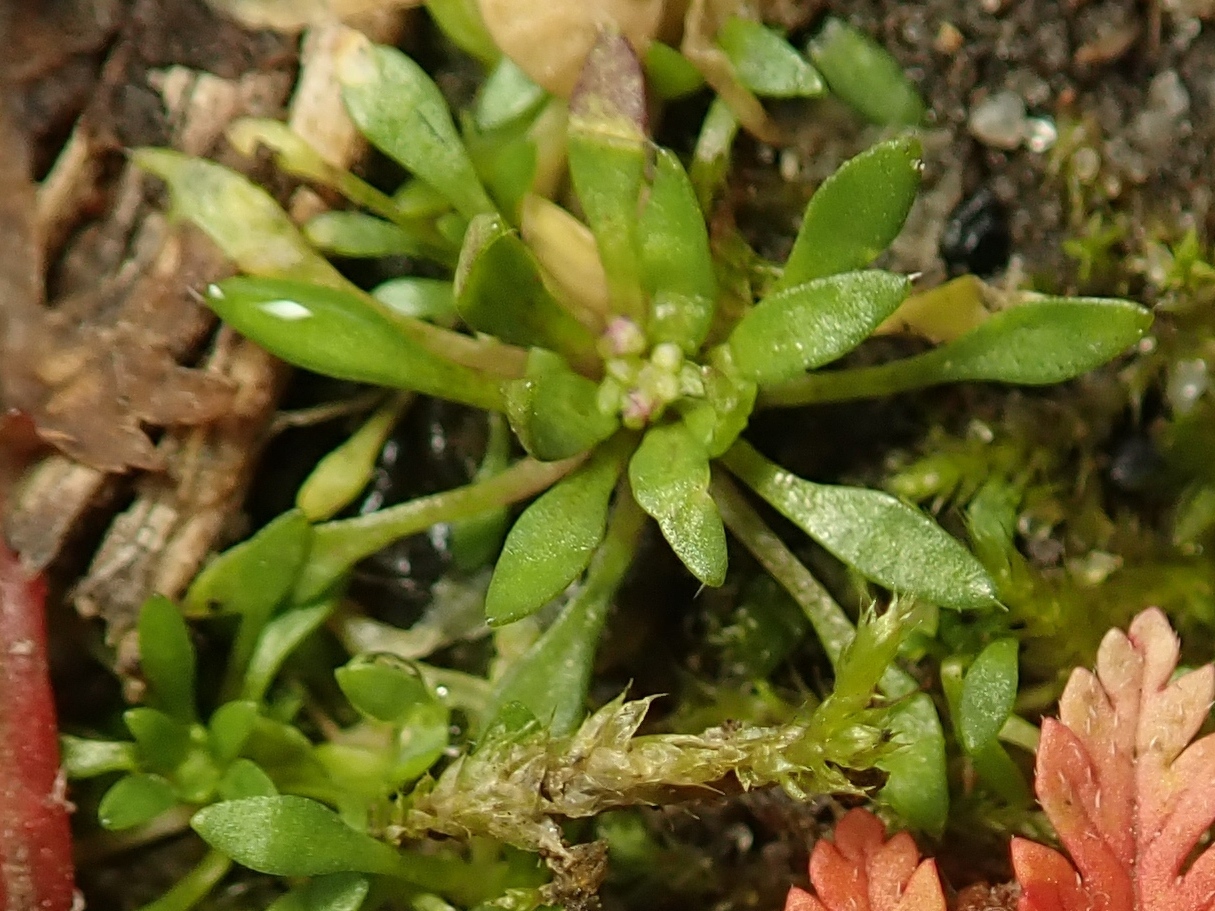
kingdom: Plantae
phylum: Tracheophyta
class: Magnoliopsida
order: Brassicales
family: Brassicaceae
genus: Draba
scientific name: Draba verna
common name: Spring draba
